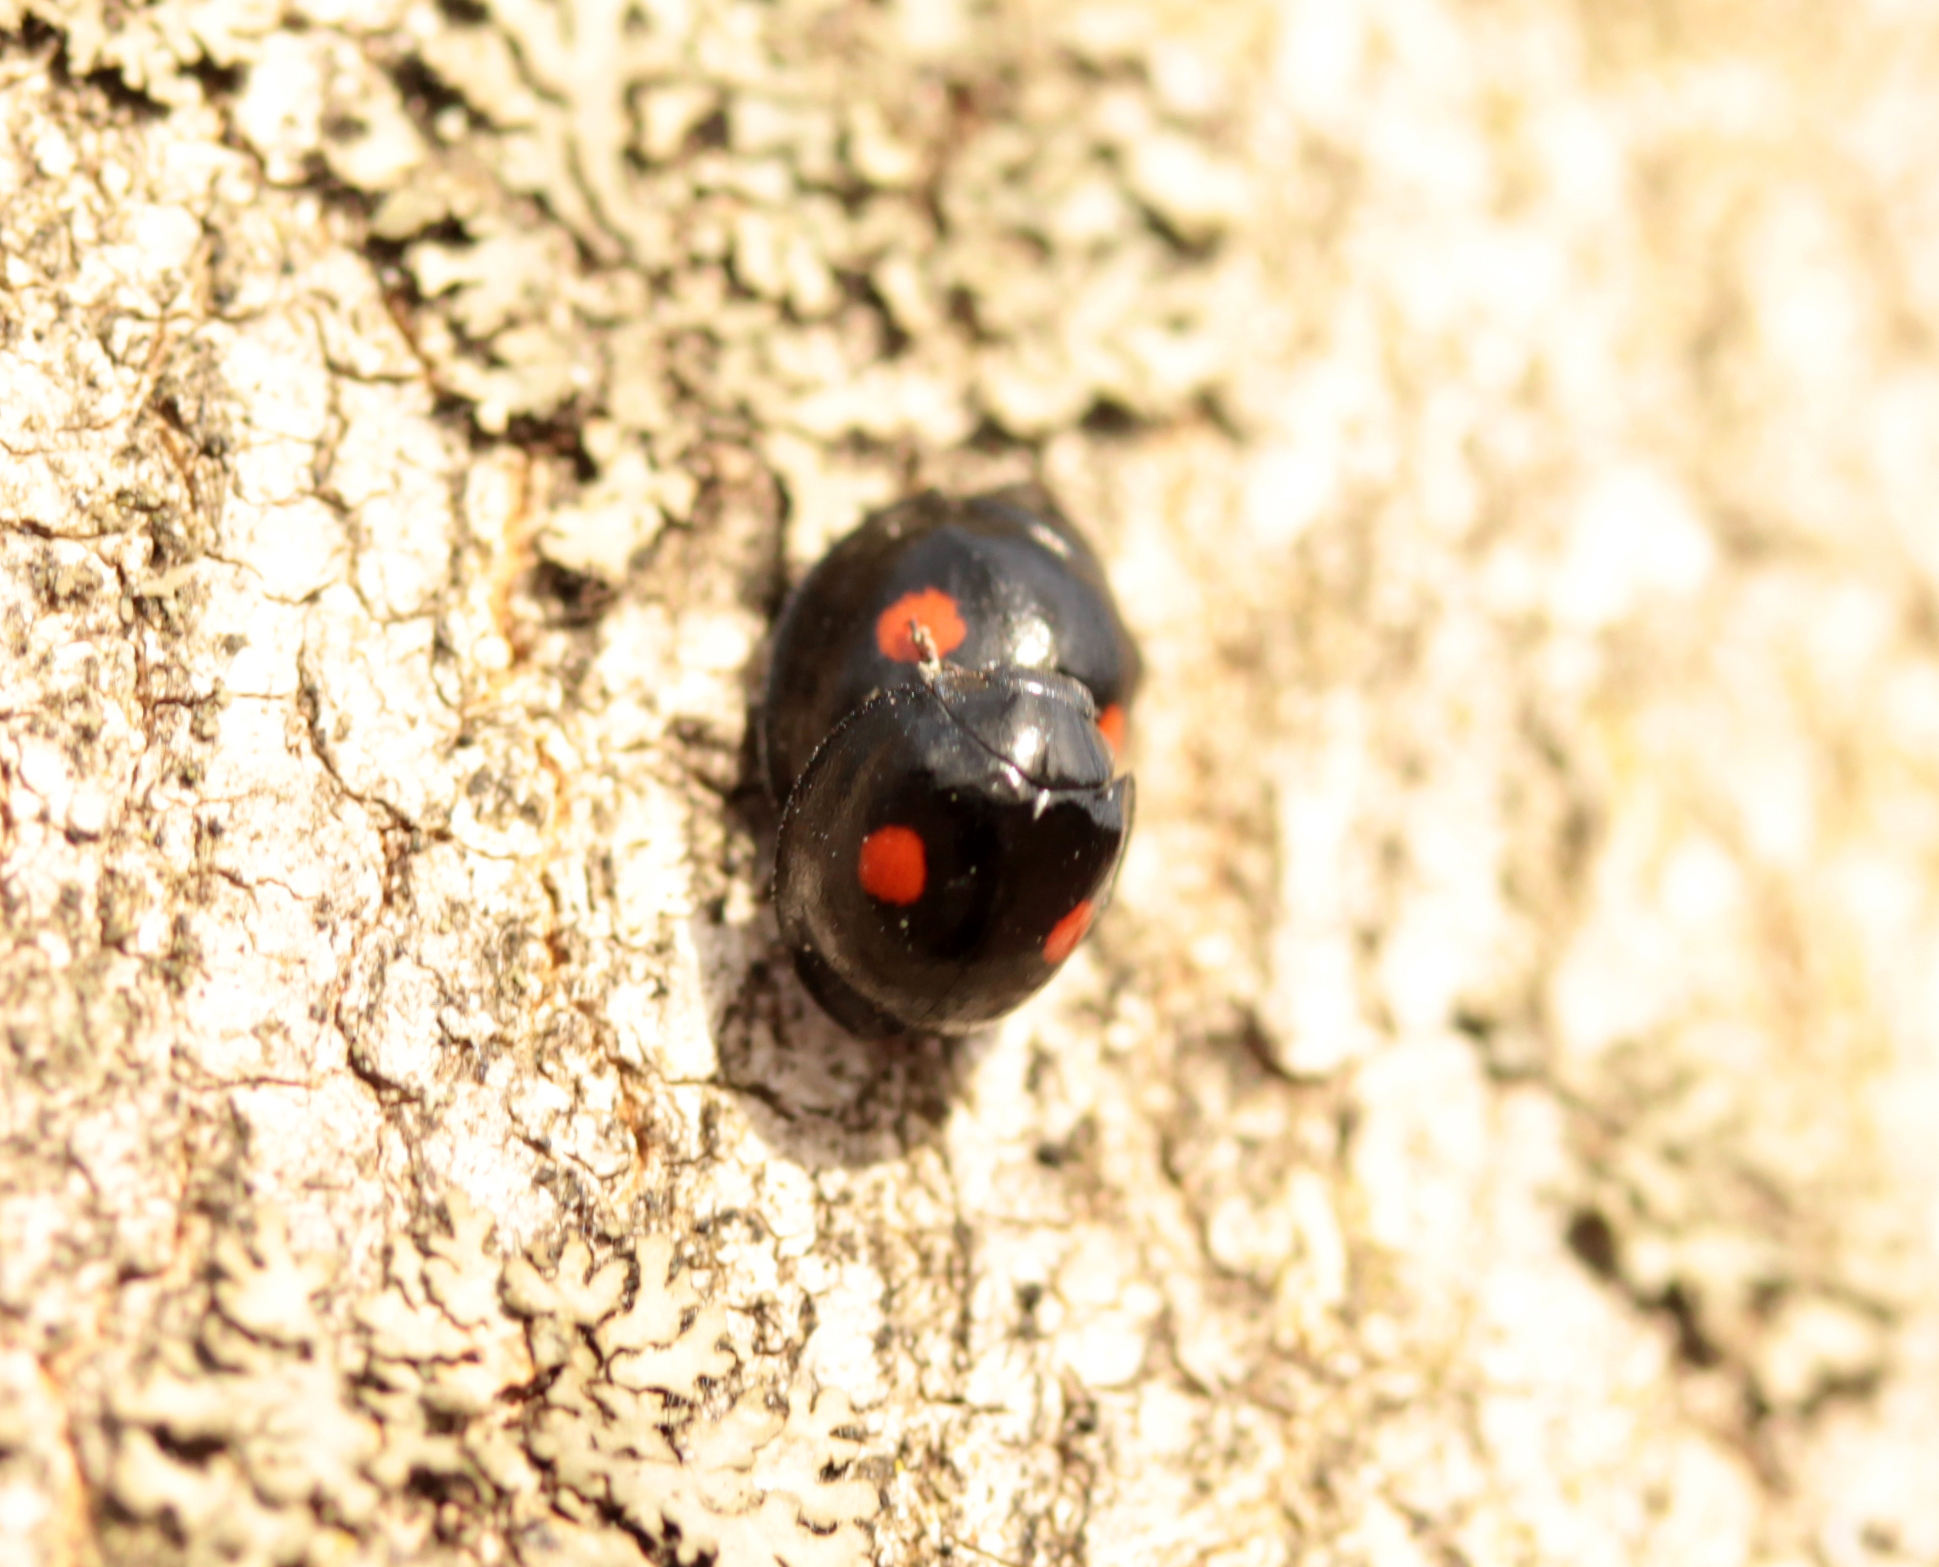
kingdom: Animalia
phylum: Arthropoda
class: Insecta
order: Coleoptera
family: Coccinellidae
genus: Chilocorus
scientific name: Chilocorus stigma
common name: Twicestabbed lady beetle
